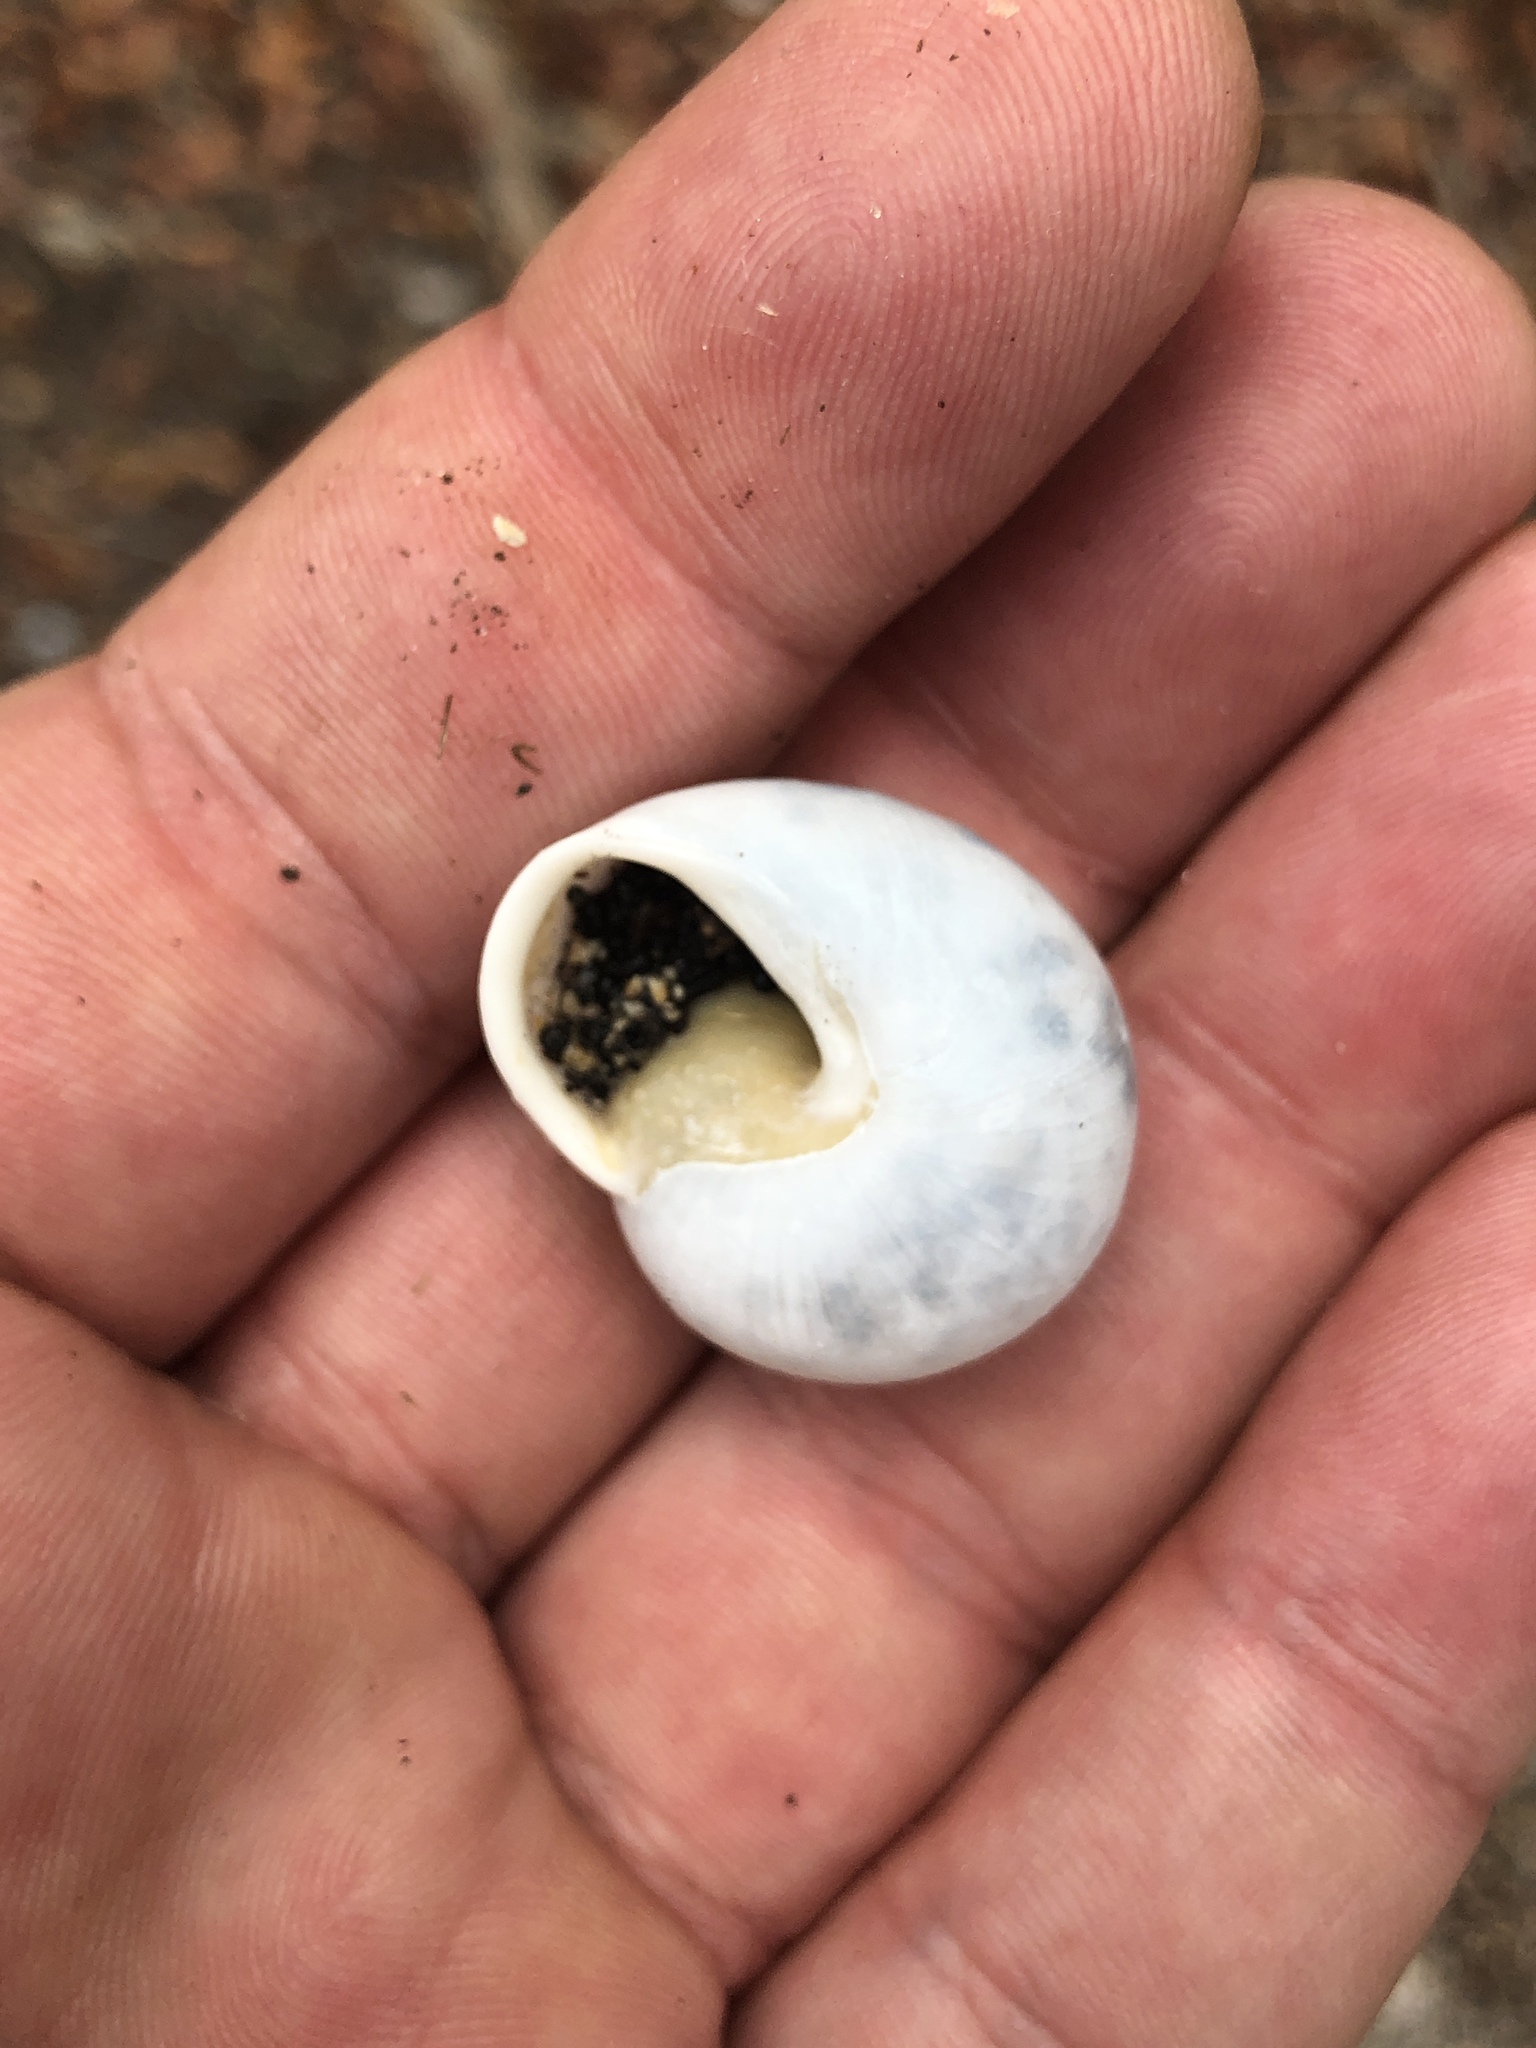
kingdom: Animalia
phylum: Mollusca
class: Gastropoda
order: Stylommatophora
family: Zachrysiidae
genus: Zachrysia
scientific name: Zachrysia provisoria
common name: Garden zachrysia
